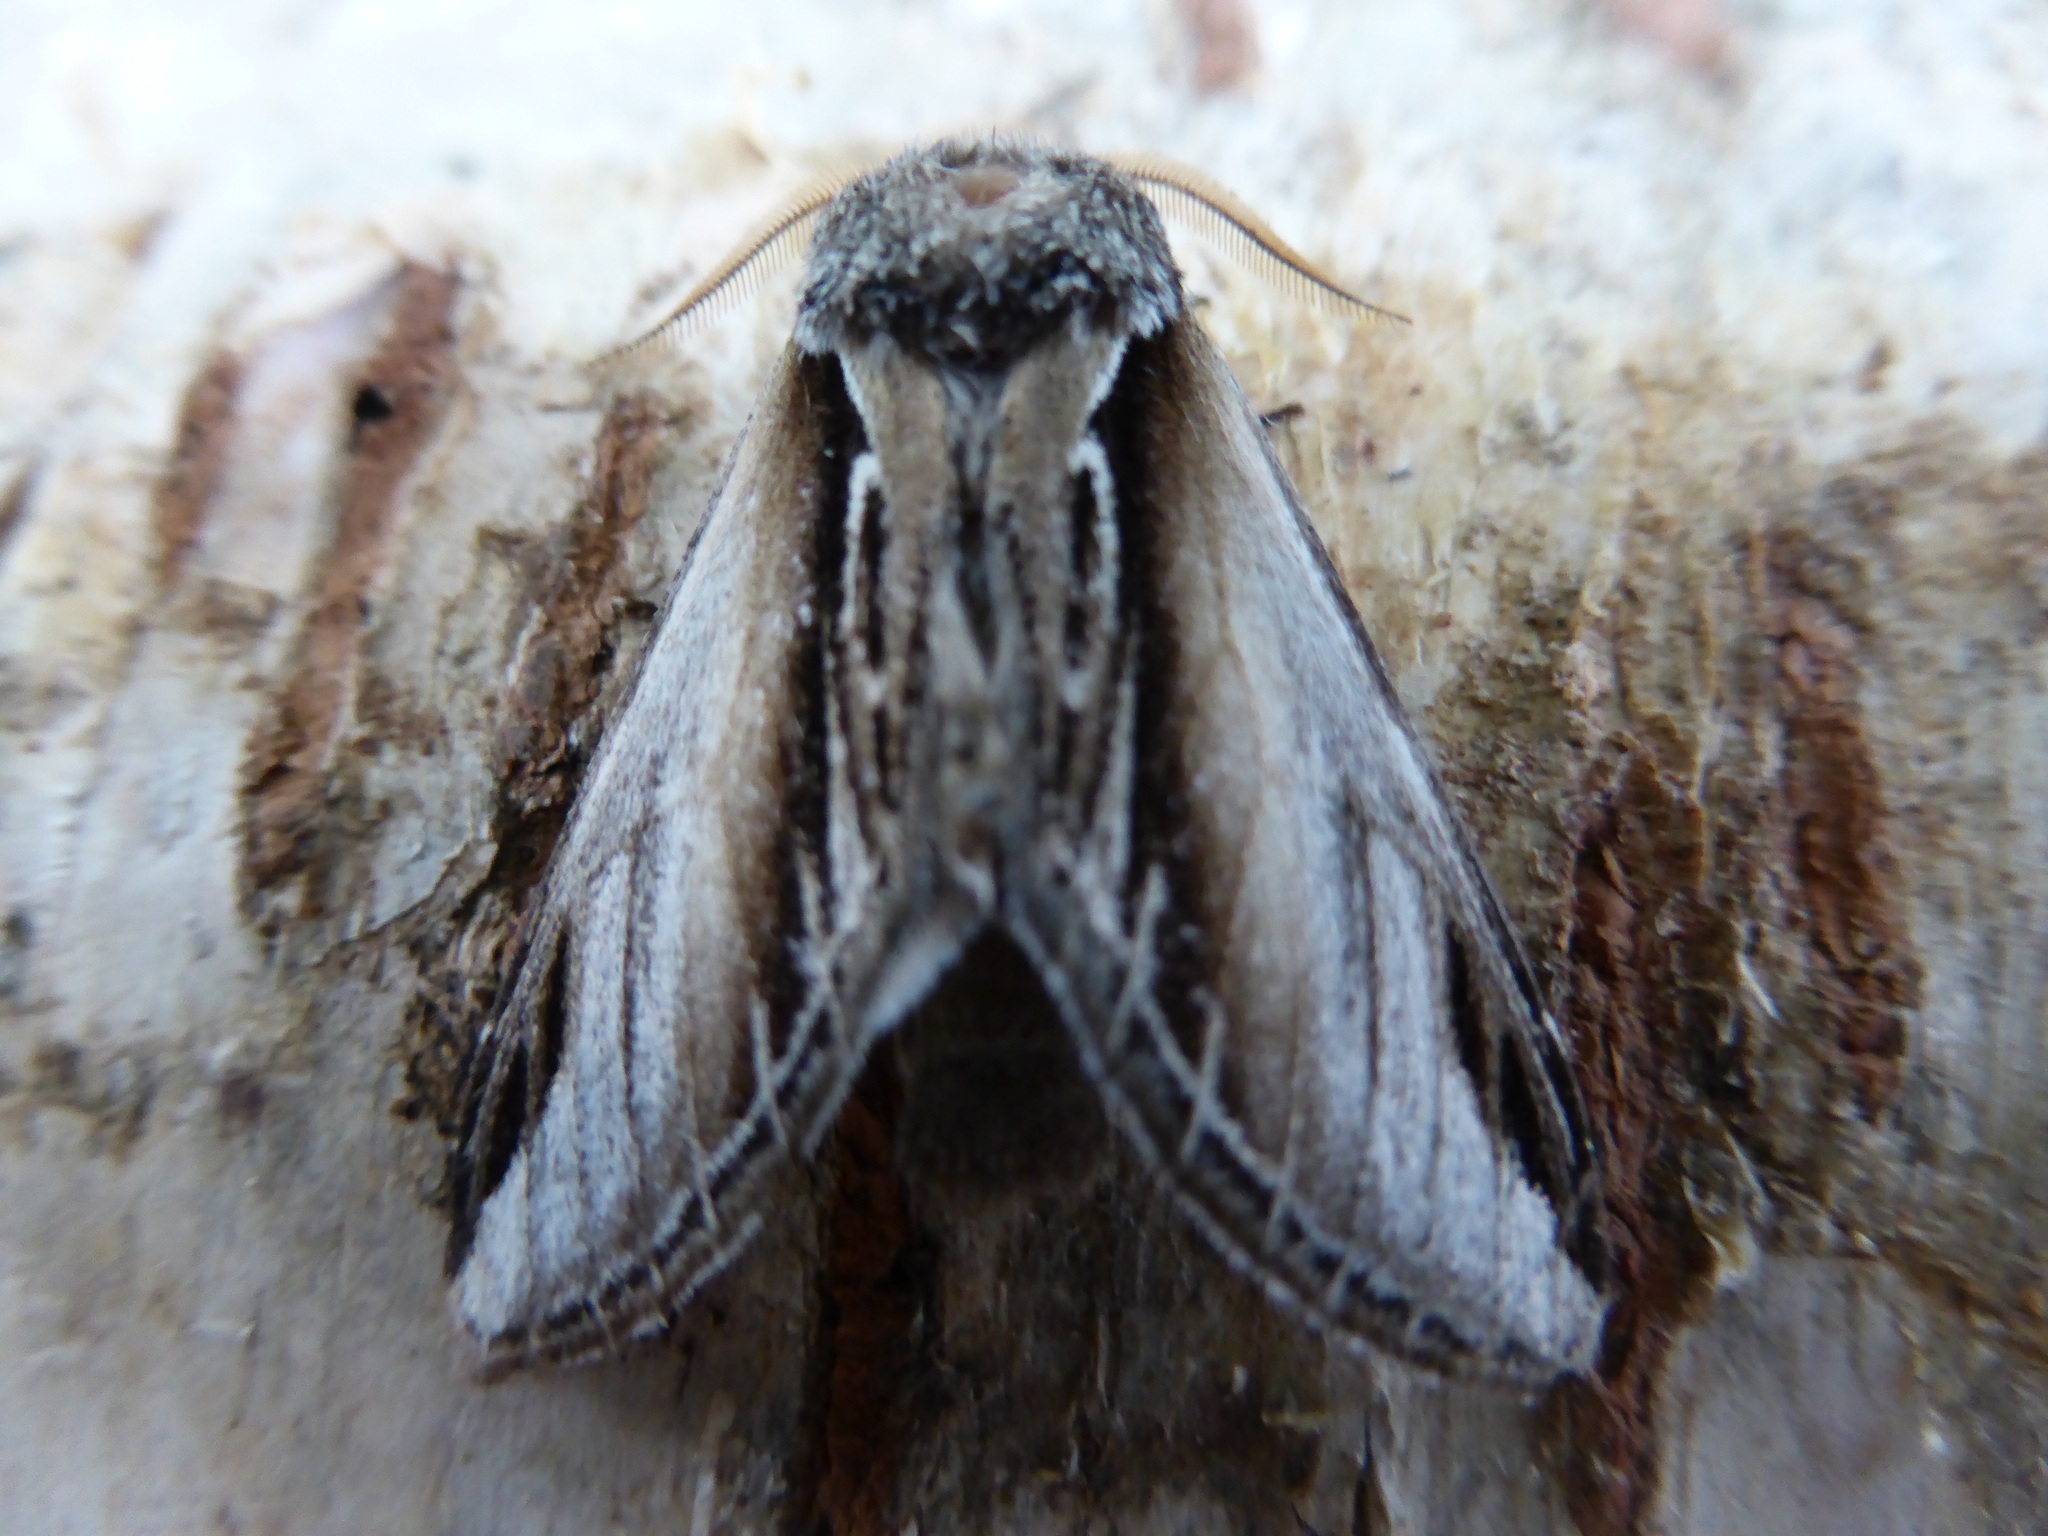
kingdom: Animalia
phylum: Arthropoda
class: Insecta
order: Lepidoptera
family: Notodontidae
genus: Pheosia
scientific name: Pheosia tremula
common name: Swallow prominent
